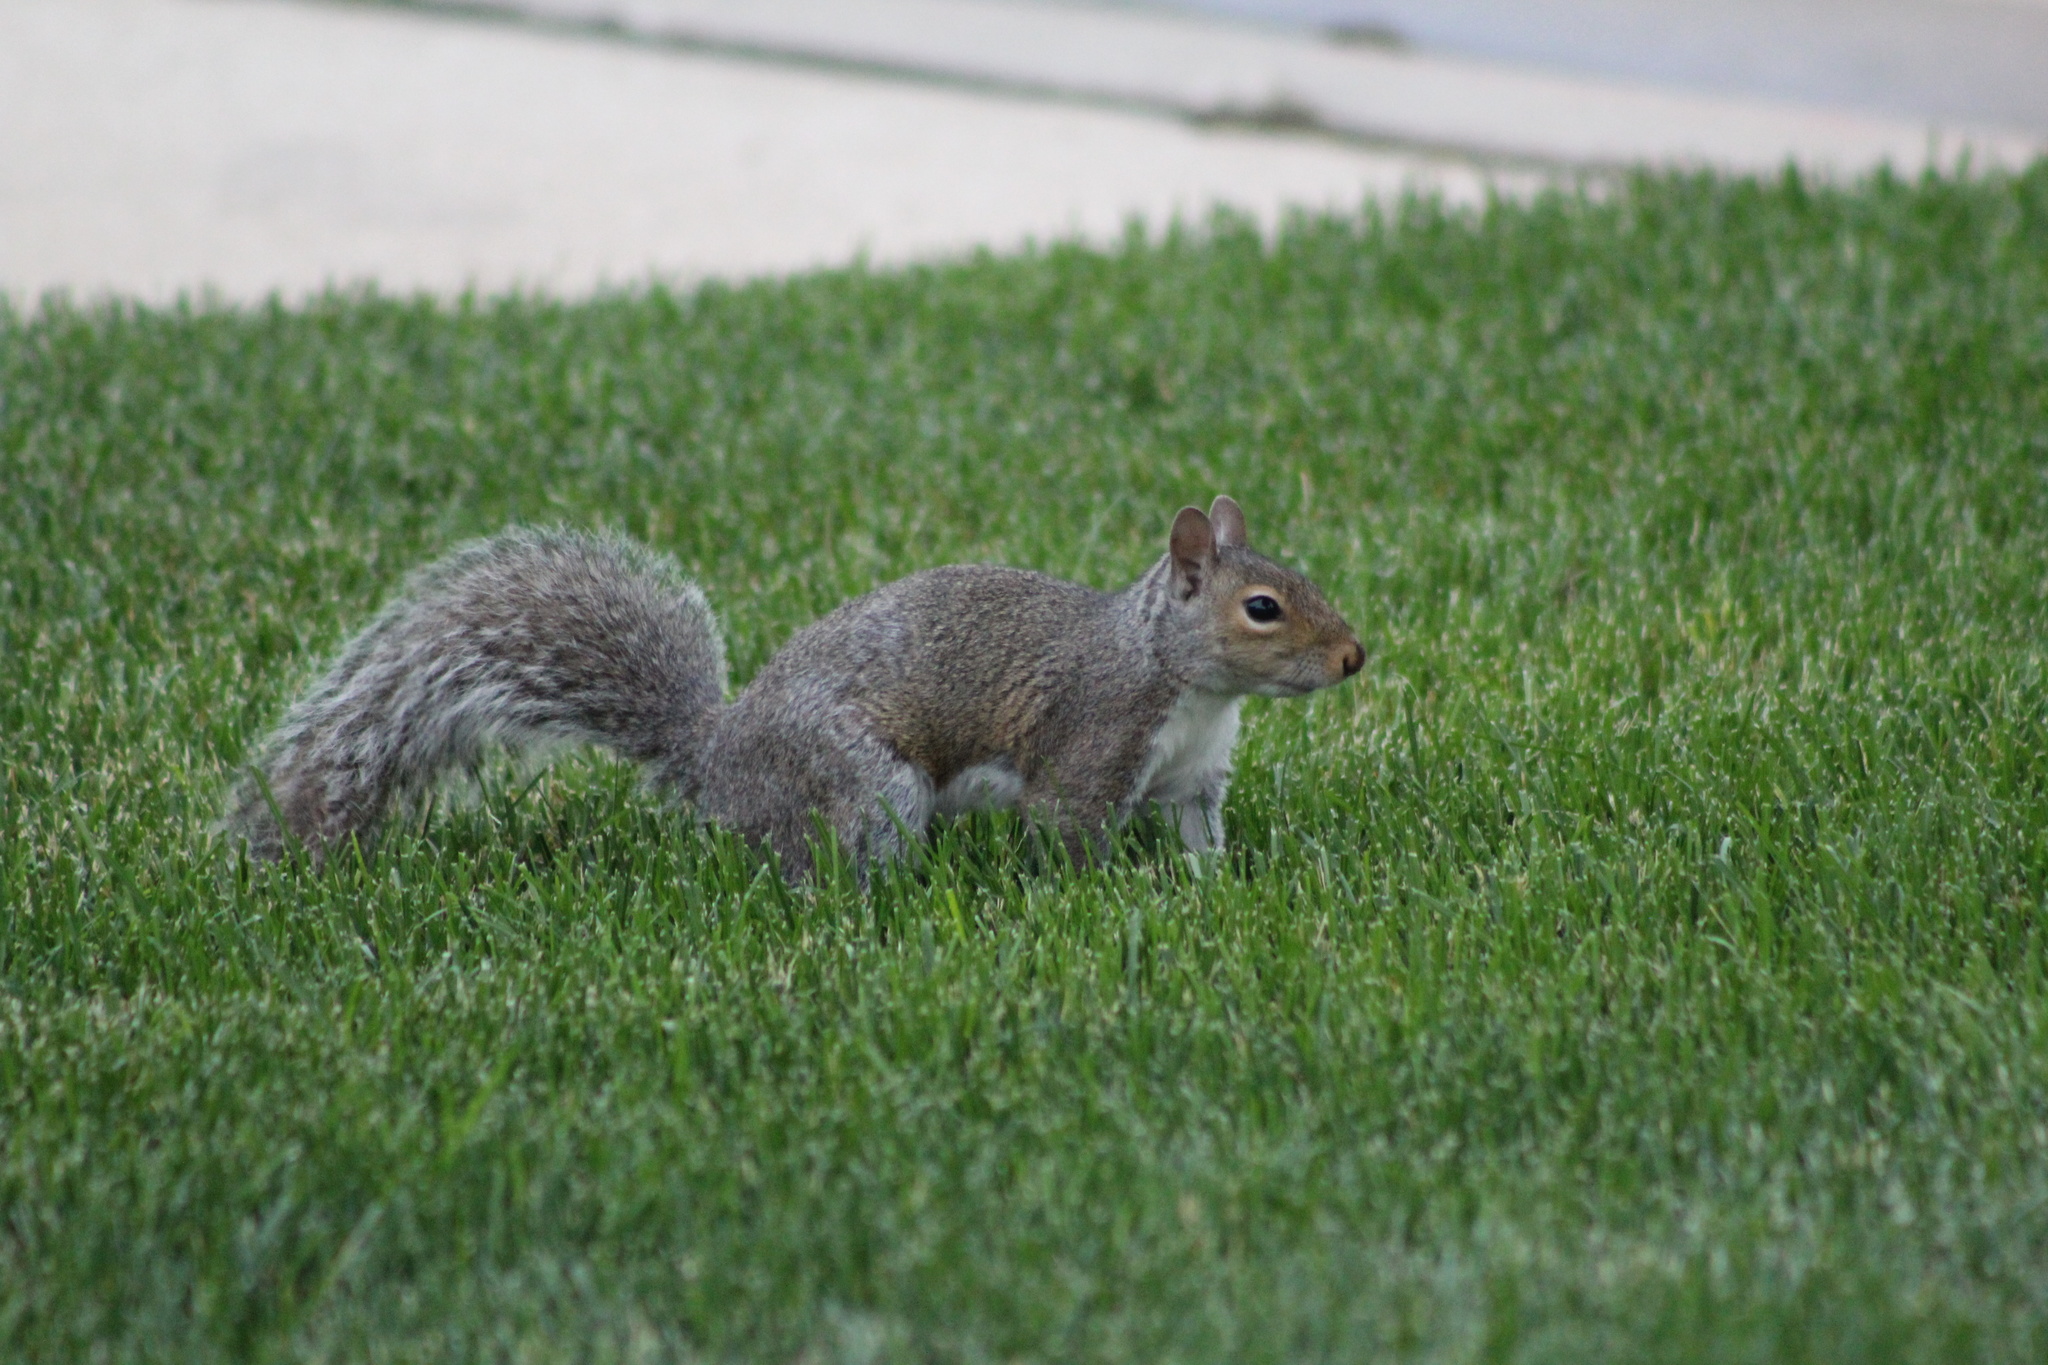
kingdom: Animalia
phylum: Chordata
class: Mammalia
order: Rodentia
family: Sciuridae
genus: Sciurus
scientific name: Sciurus carolinensis
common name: Eastern gray squirrel
